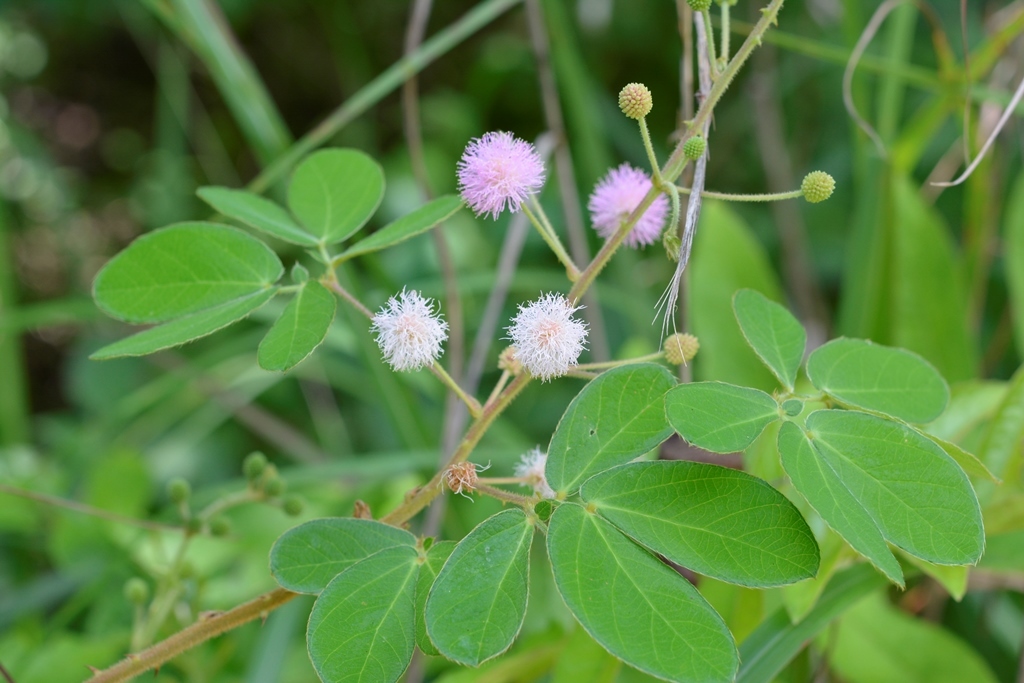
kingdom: Plantae
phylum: Tracheophyta
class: Magnoliopsida
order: Fabales
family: Fabaceae
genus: Mimosa
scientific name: Mimosa albida
